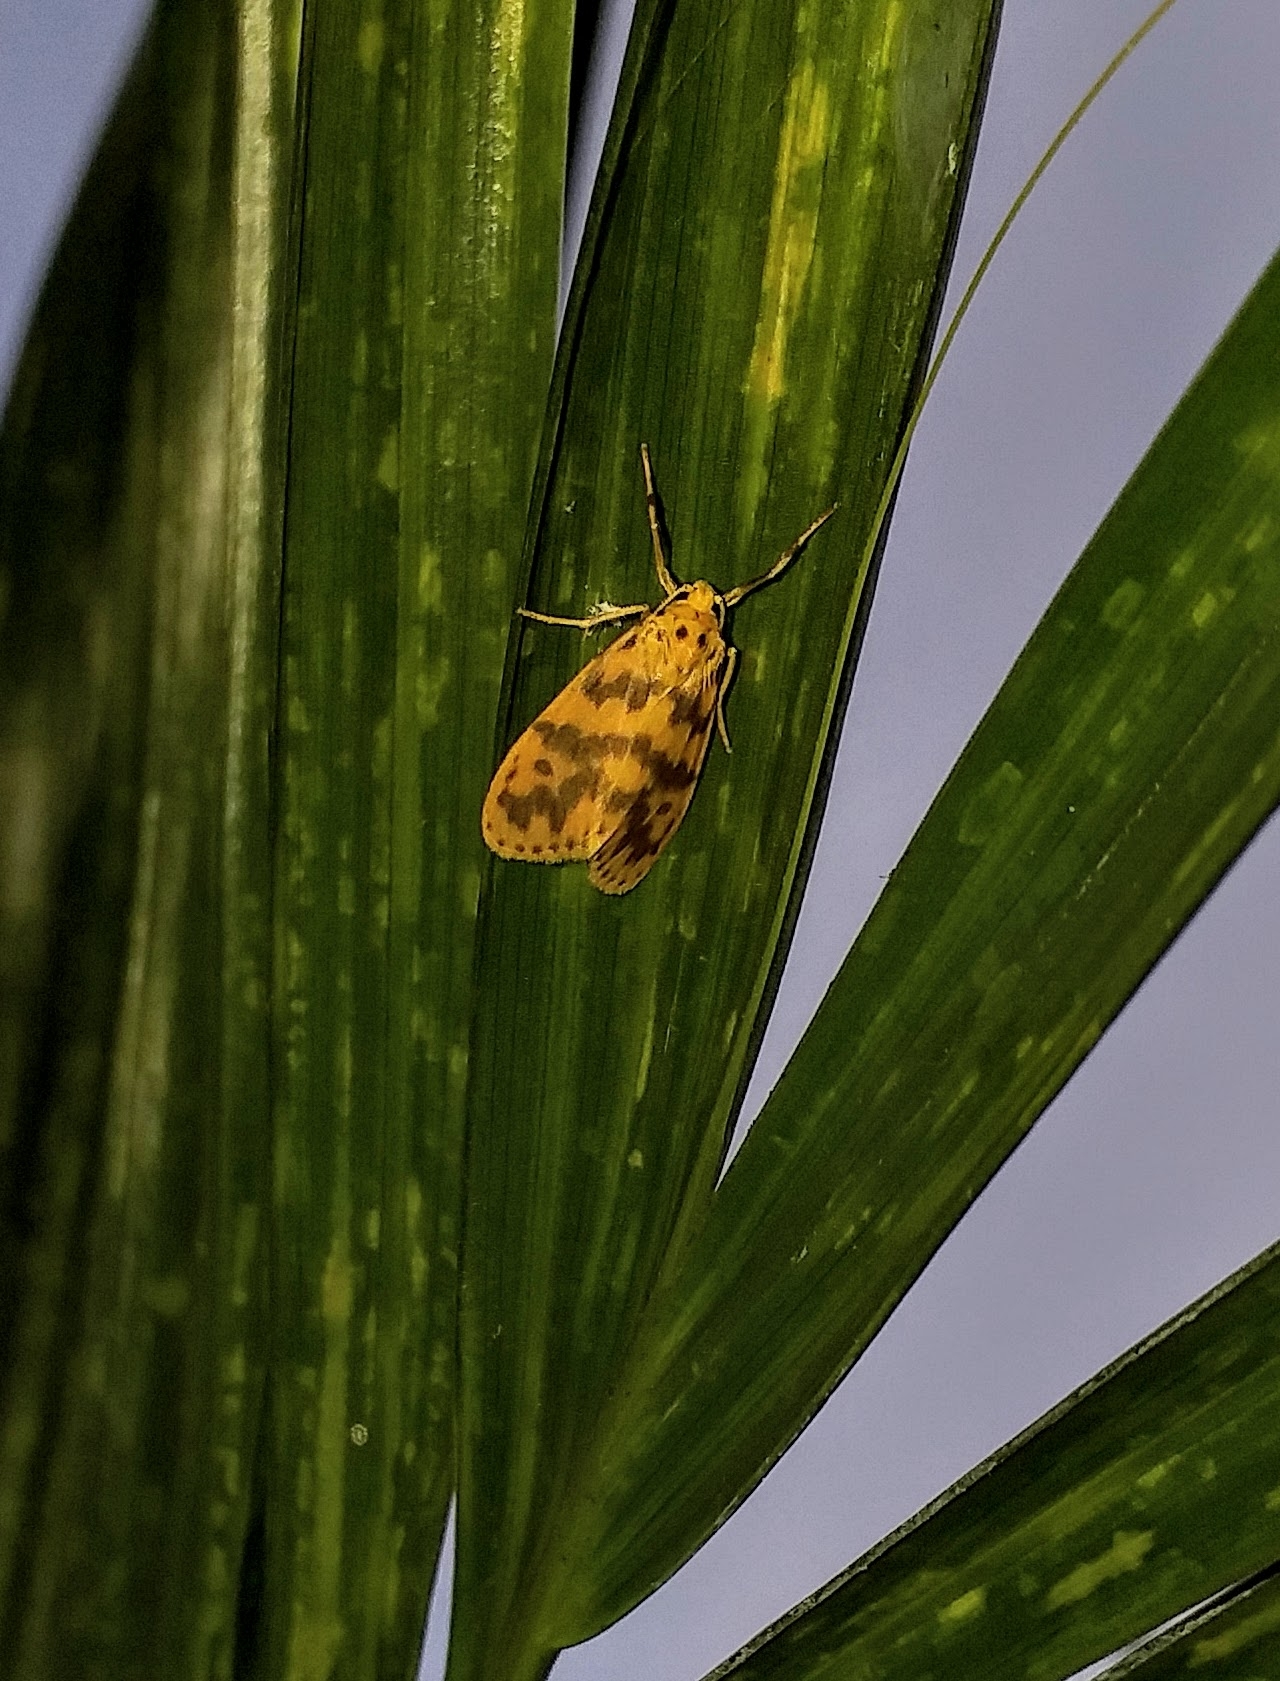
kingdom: Animalia
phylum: Arthropoda
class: Insecta
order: Lepidoptera
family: Erebidae
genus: Arctelene
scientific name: Arctelene rubricosa
